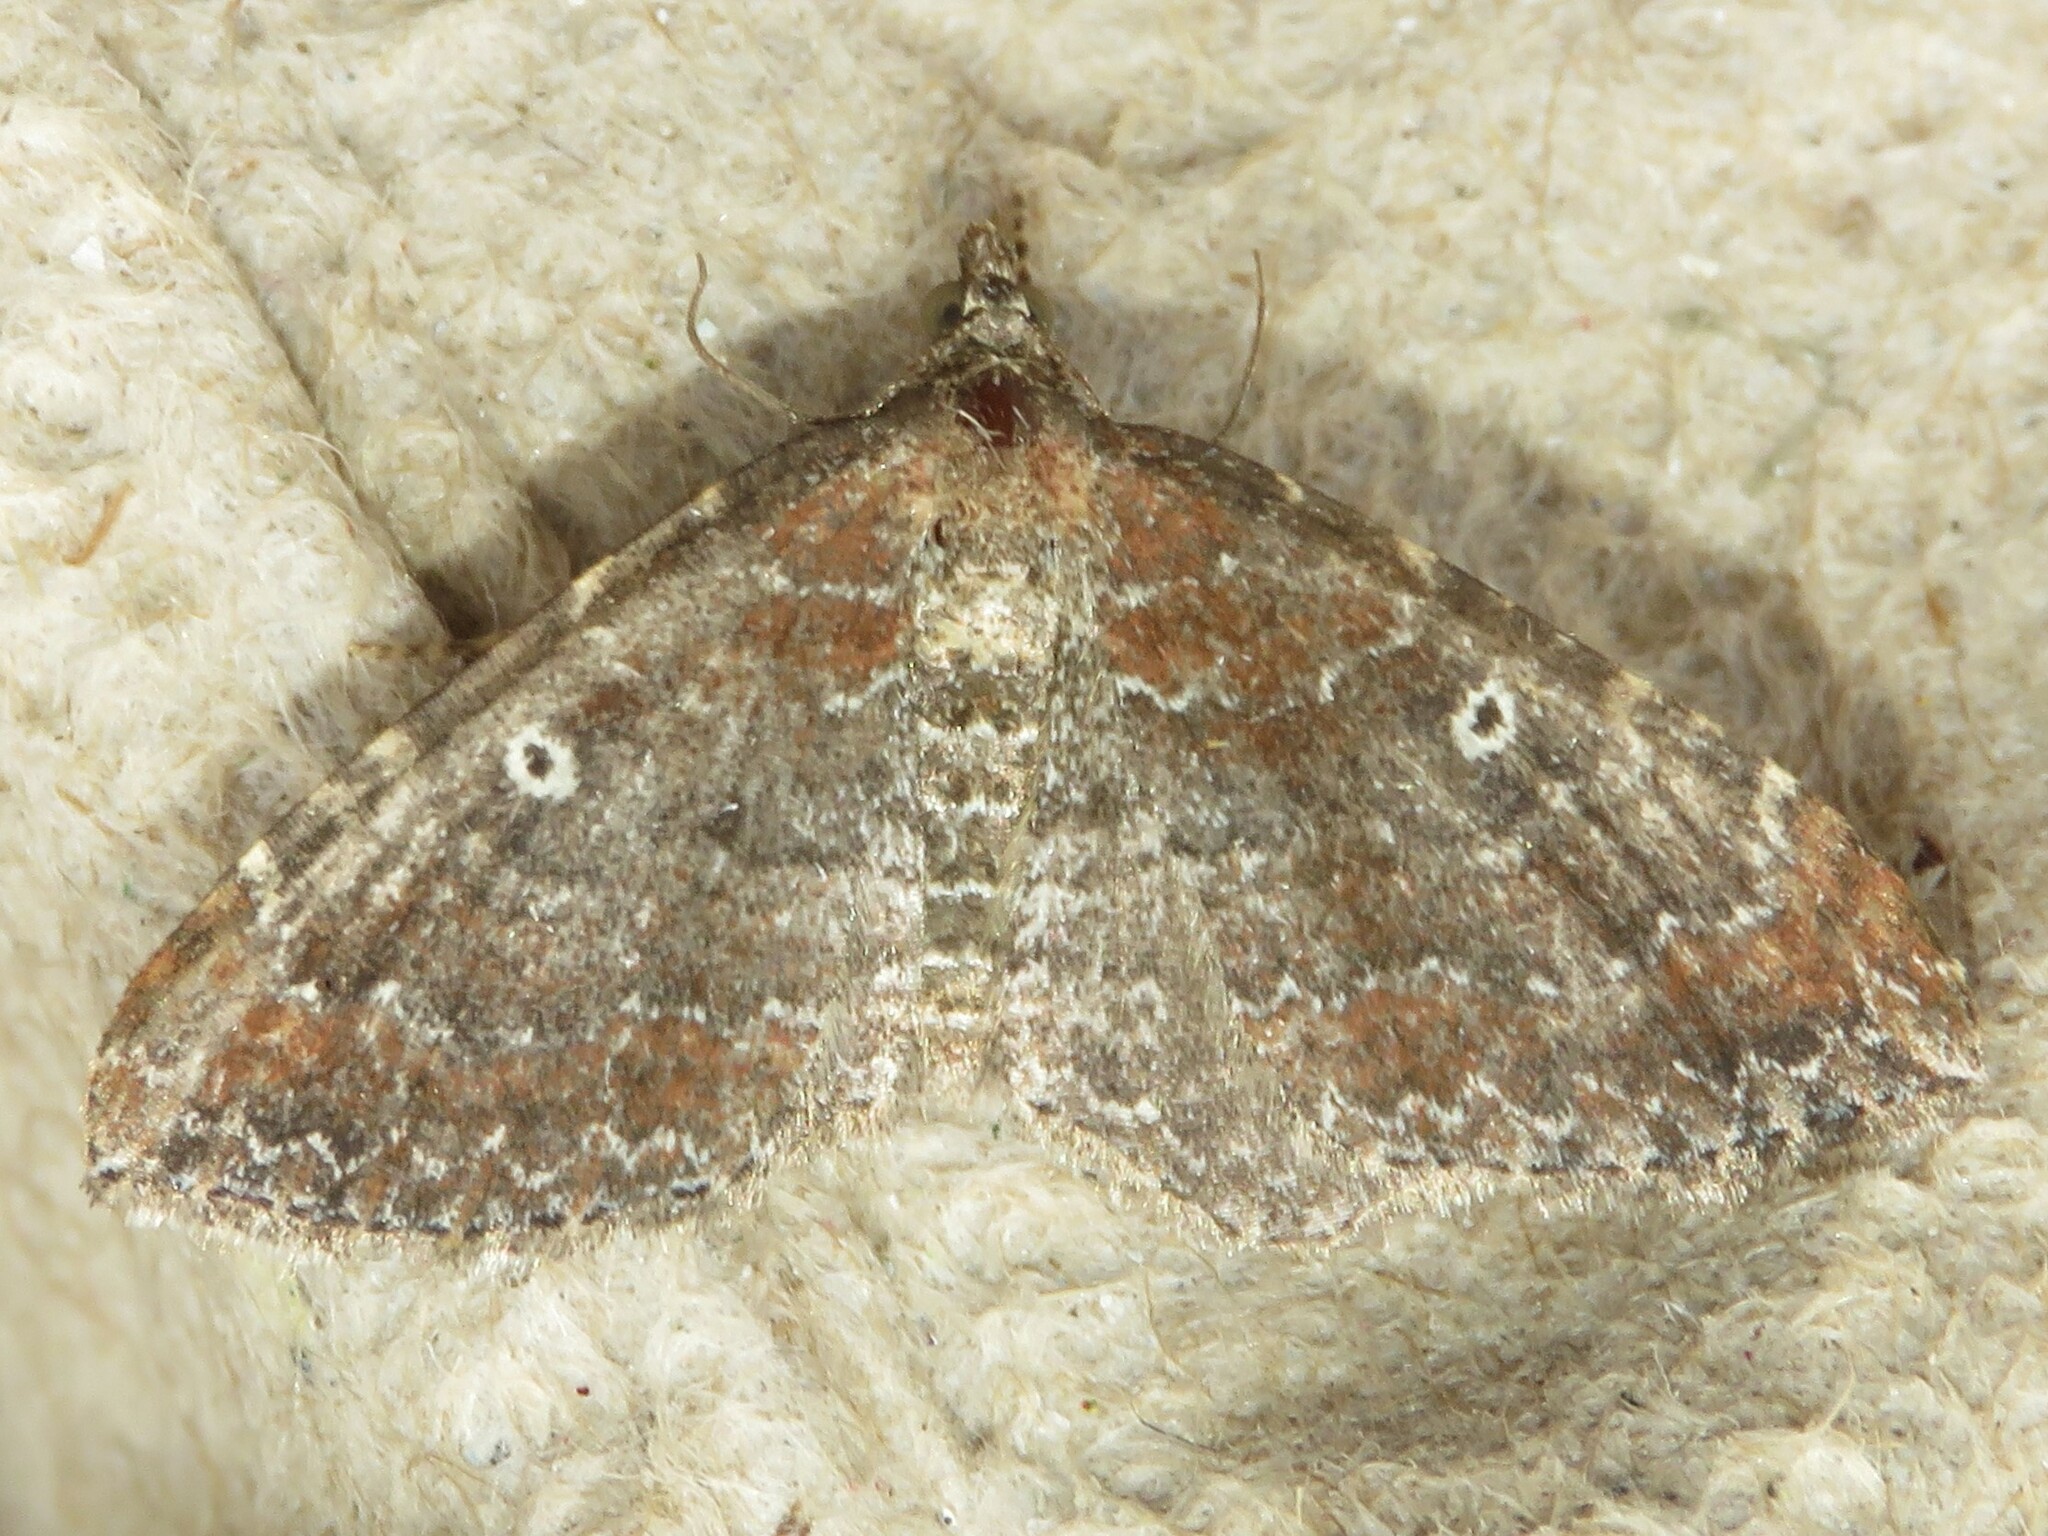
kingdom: Animalia
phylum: Arthropoda
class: Insecta
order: Lepidoptera
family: Geometridae
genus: Orthonama
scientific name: Orthonama obstipata
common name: The gem
